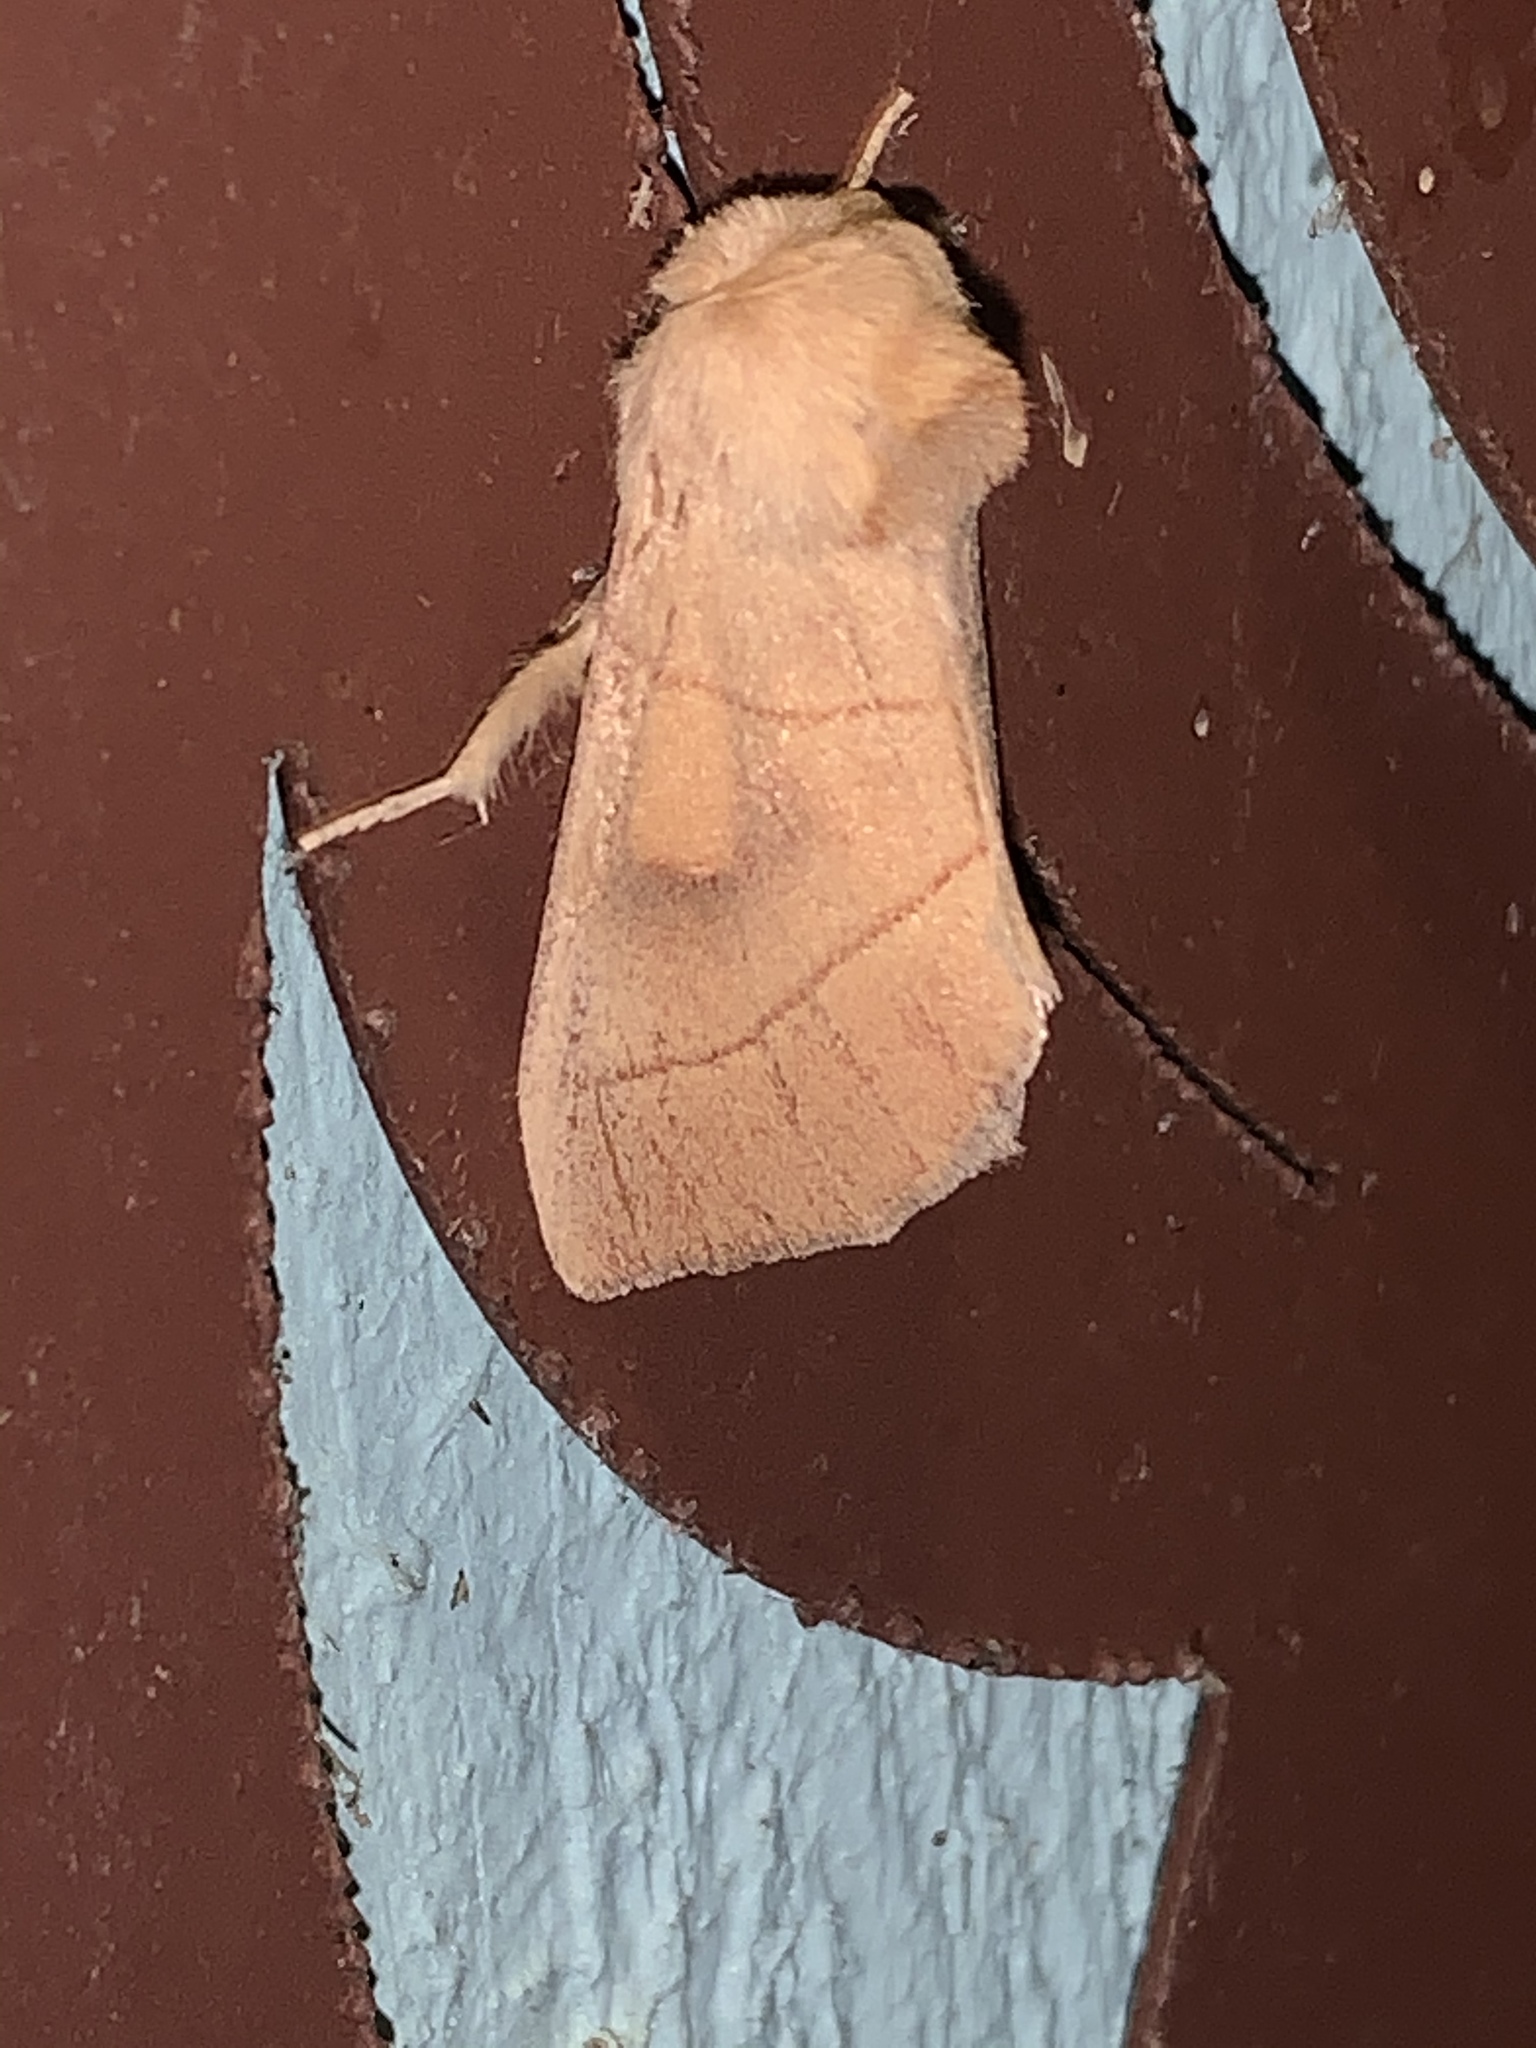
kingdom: Animalia
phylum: Arthropoda
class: Insecta
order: Lepidoptera
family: Notodontidae
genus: Nadata
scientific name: Nadata gibbosa
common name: White-dotted prominent
